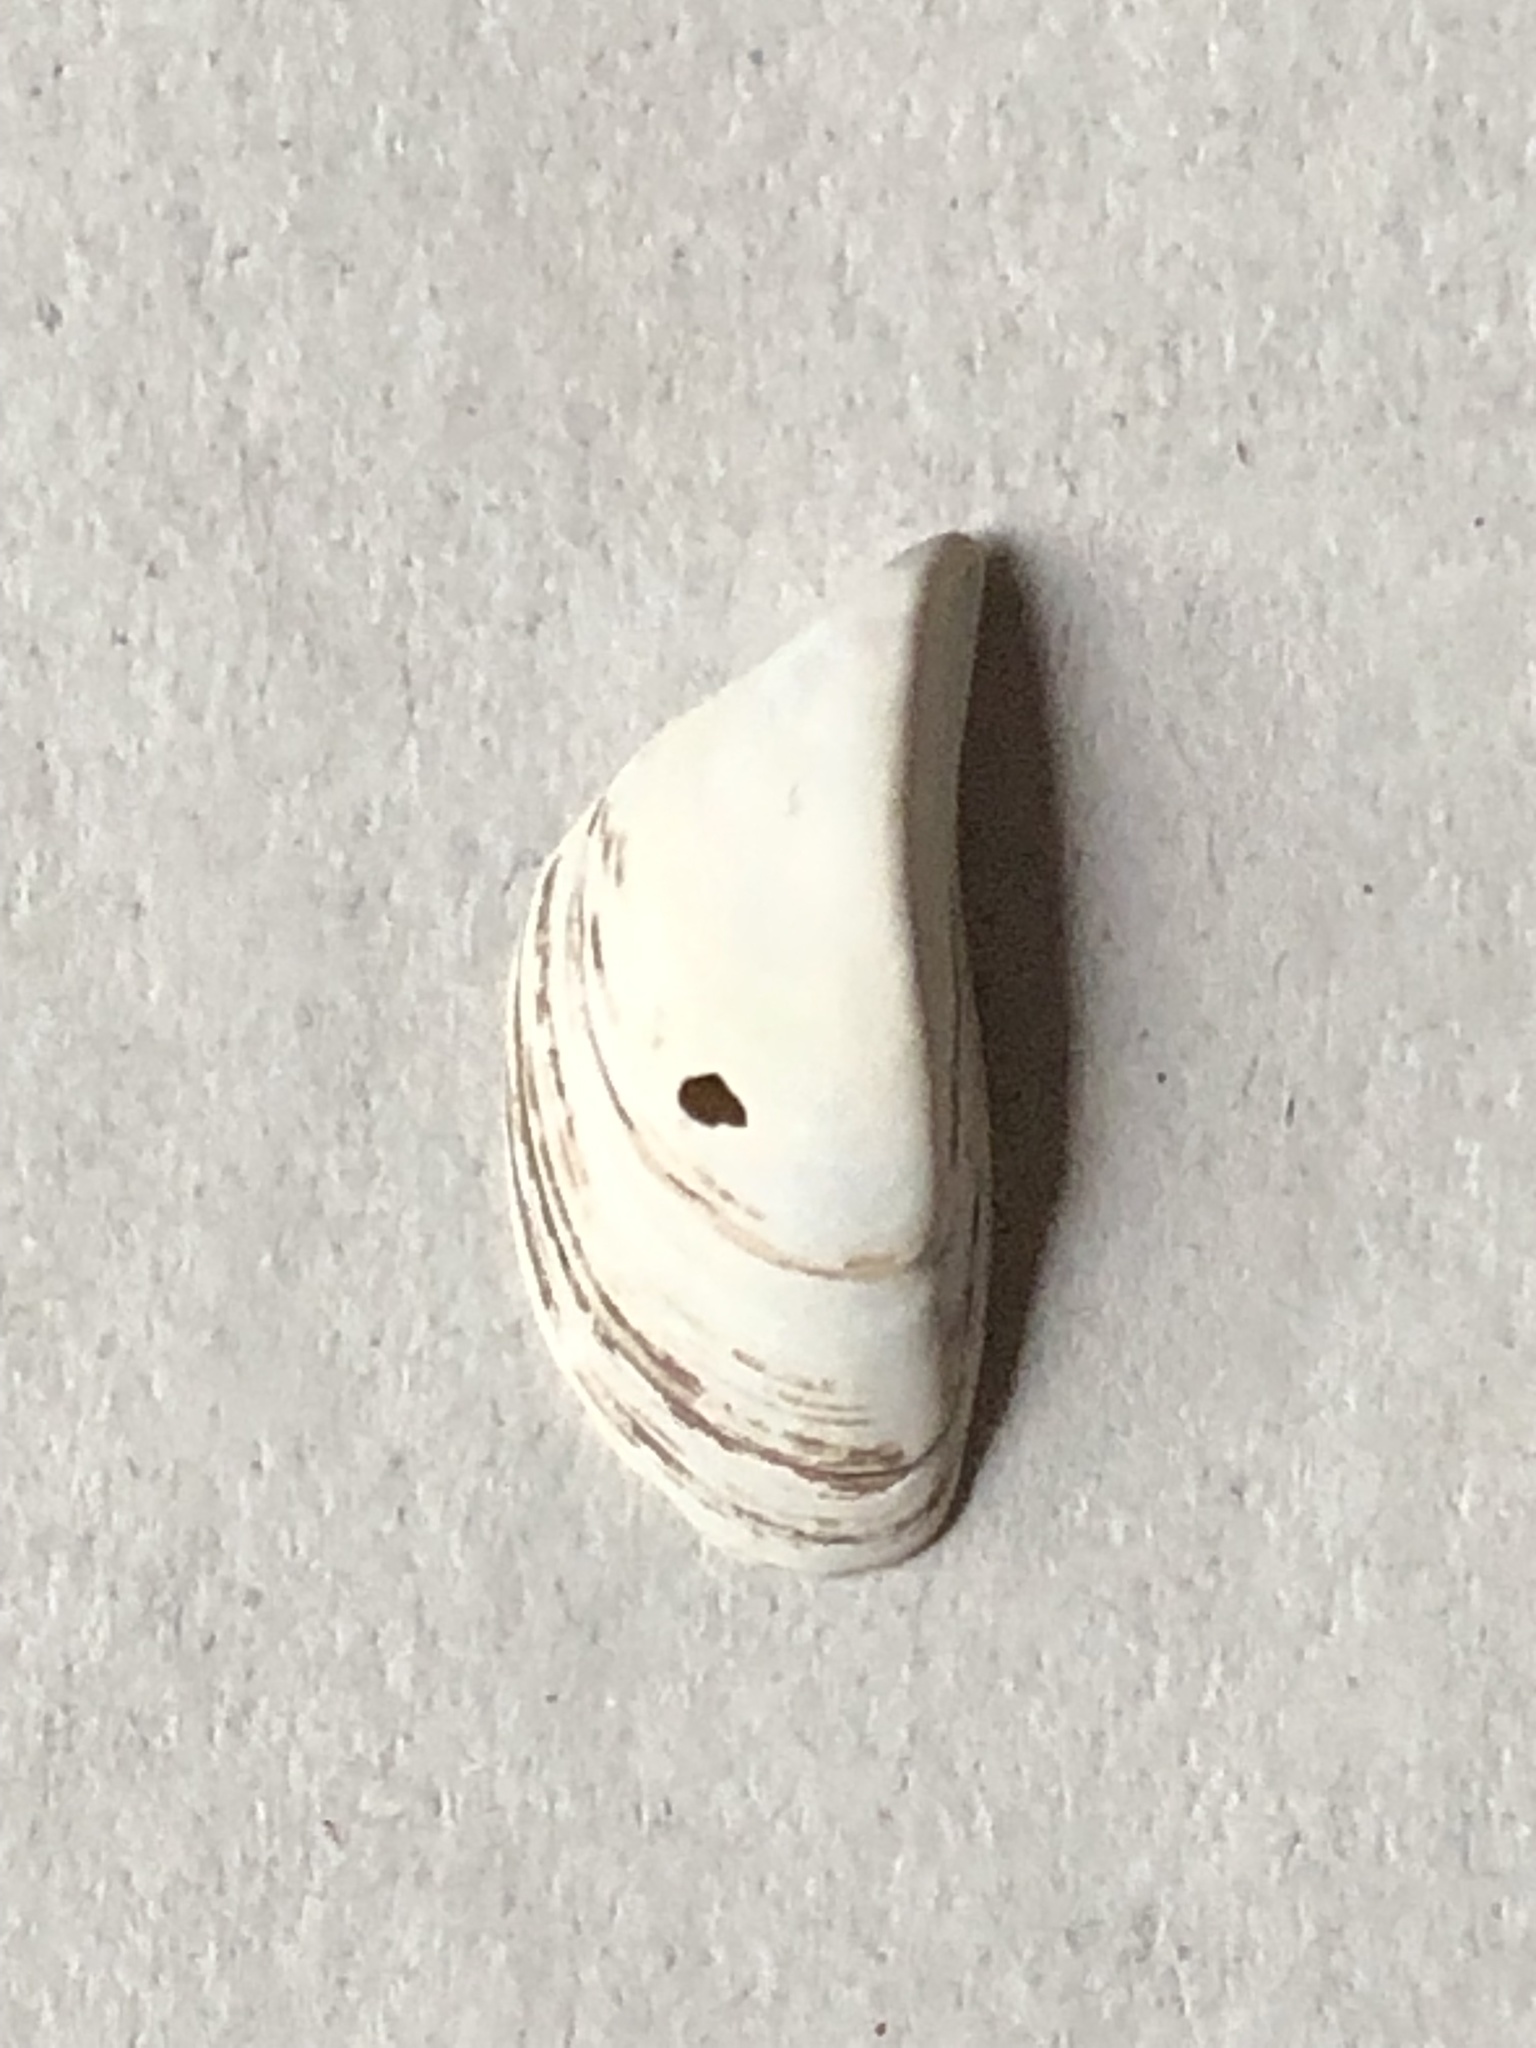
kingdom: Animalia
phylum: Mollusca
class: Bivalvia
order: Myida
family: Dreissenidae
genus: Dreissena
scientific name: Dreissena polymorpha
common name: Zebra mussel
